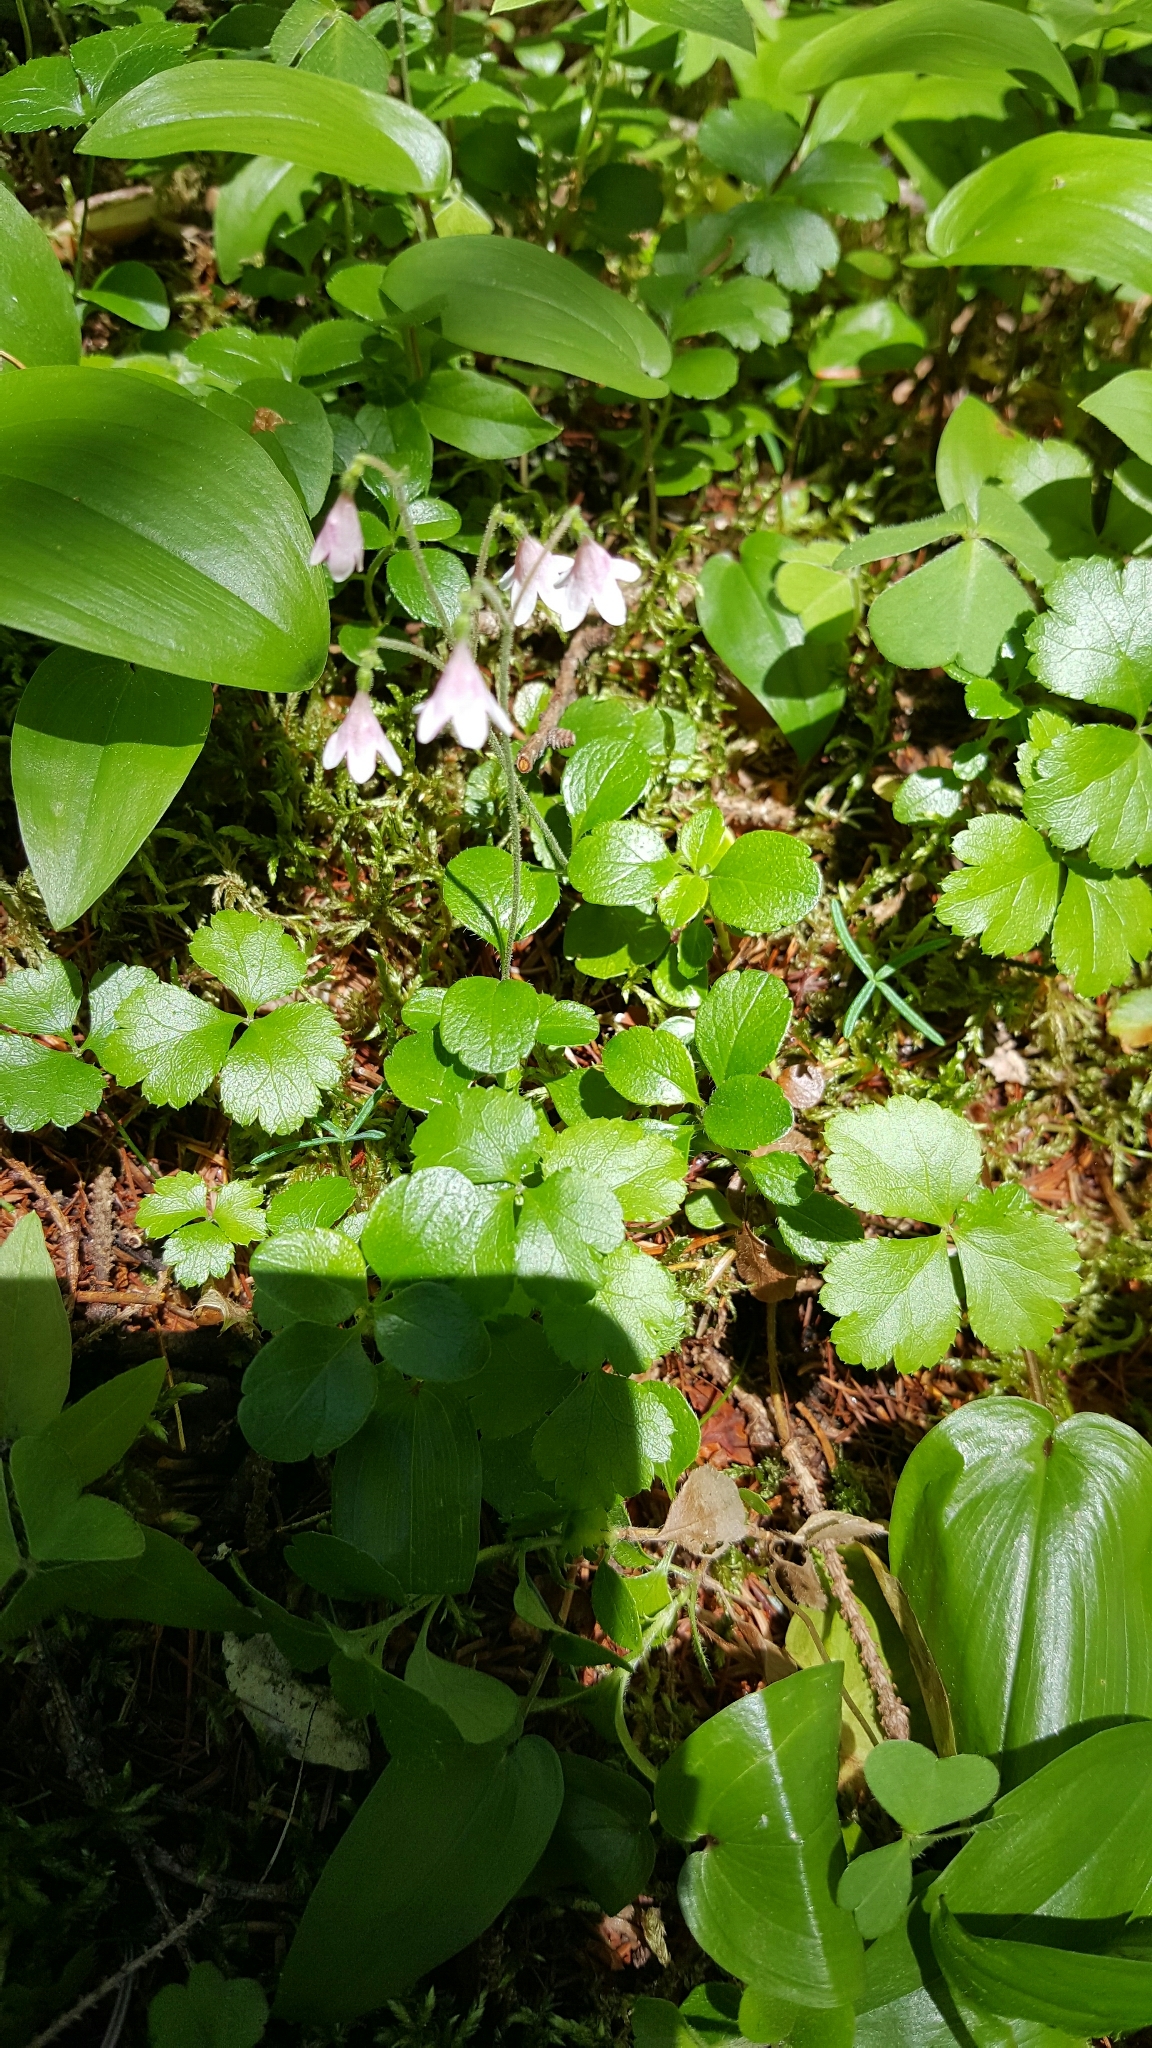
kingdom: Plantae
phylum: Tracheophyta
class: Magnoliopsida
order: Dipsacales
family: Caprifoliaceae
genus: Linnaea
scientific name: Linnaea borealis
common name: Twinflower
